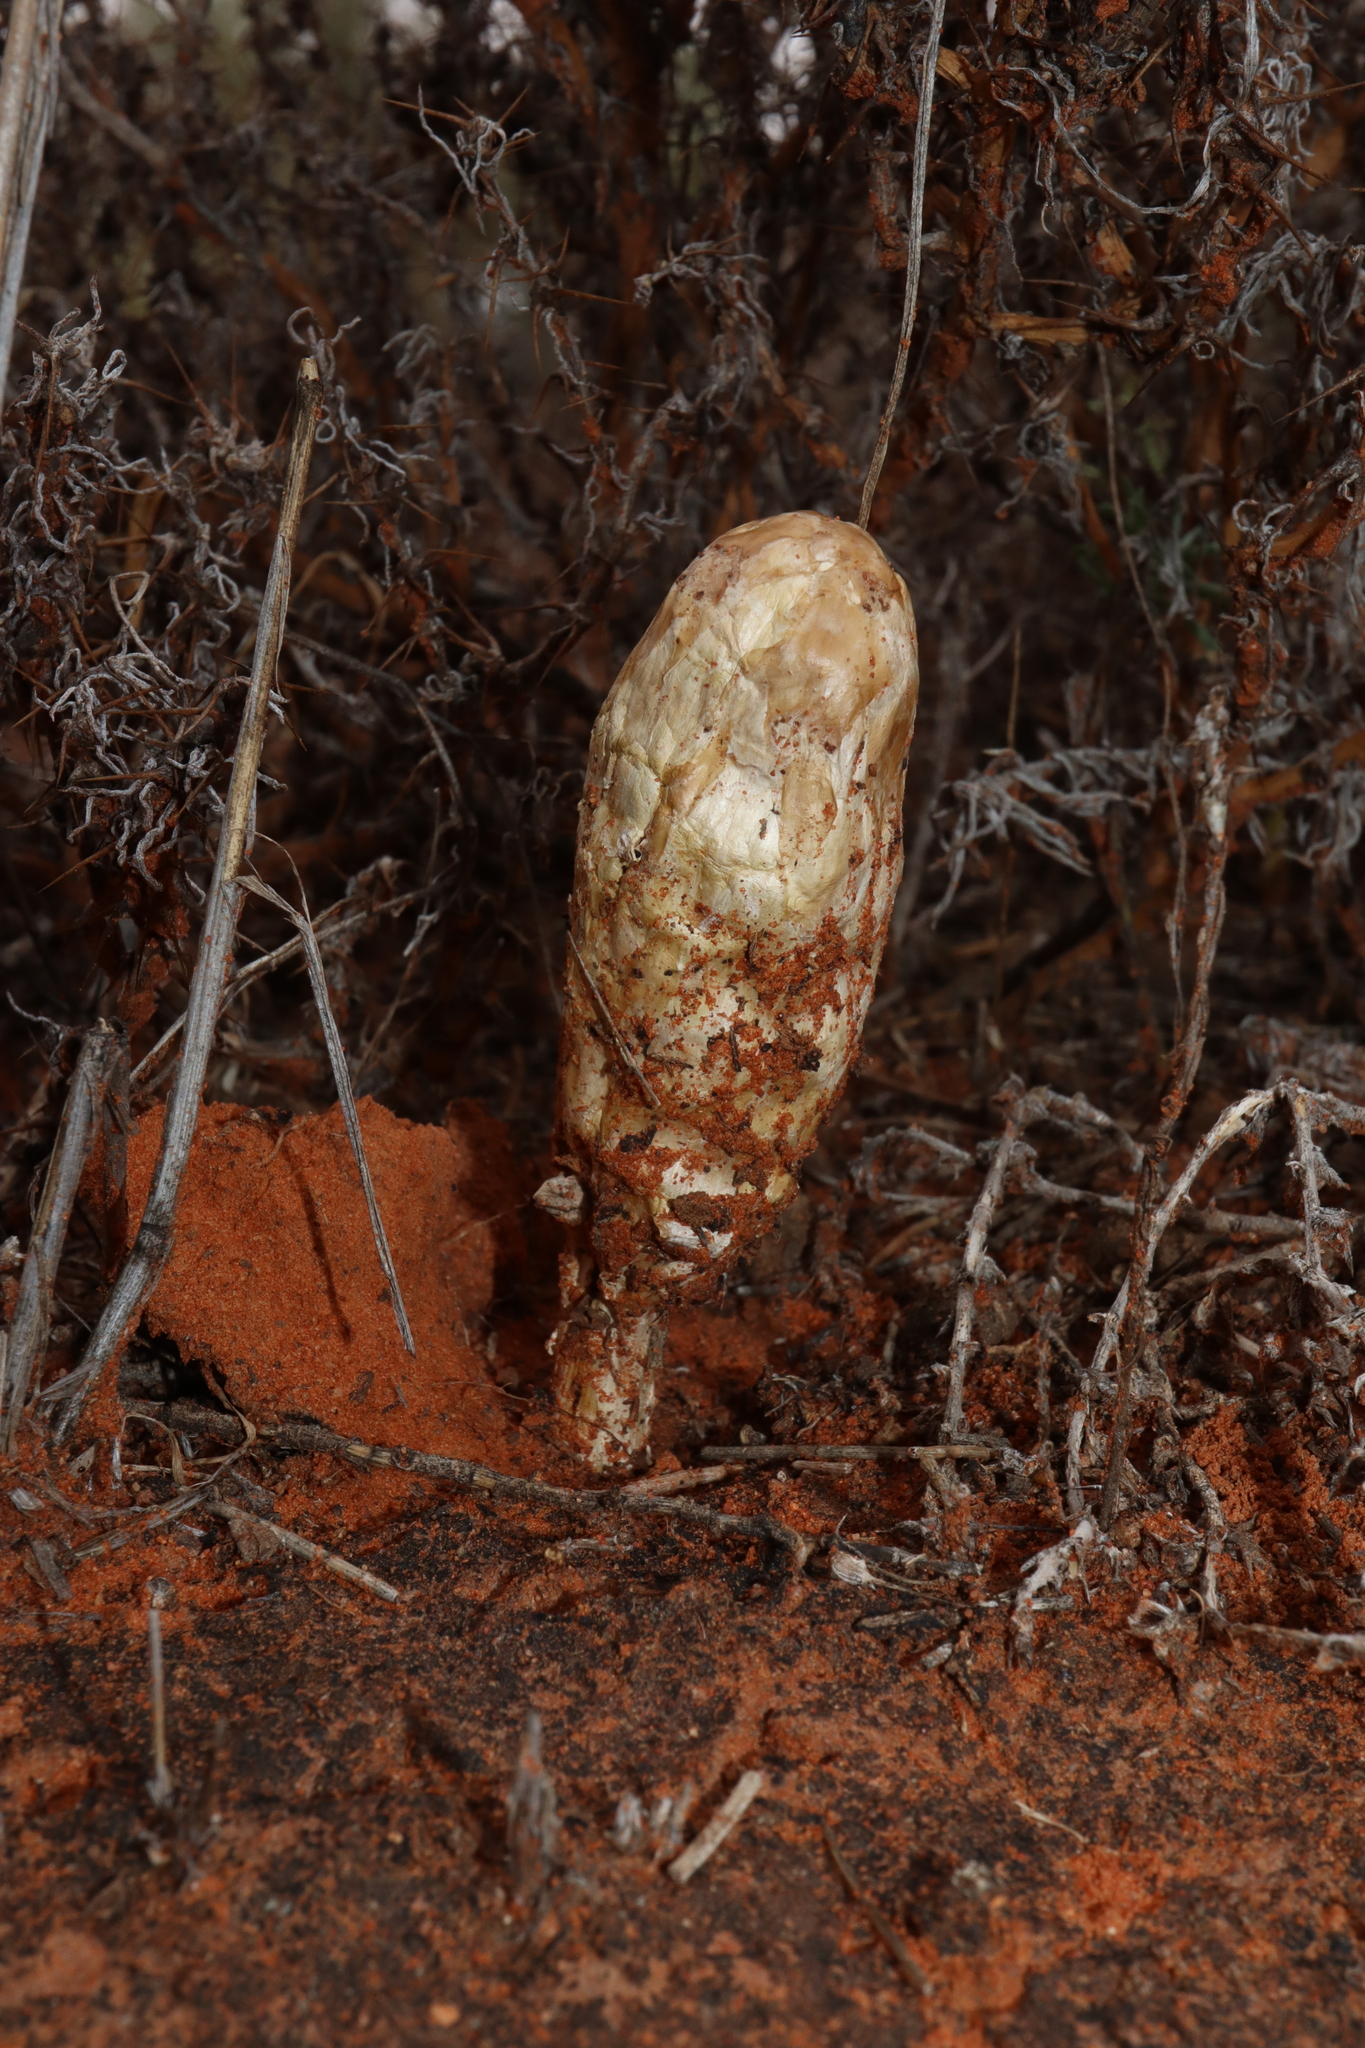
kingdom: Fungi
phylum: Basidiomycota
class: Agaricomycetes
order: Agaricales
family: Agaricaceae
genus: Podaxis
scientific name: Podaxis pistillaris
